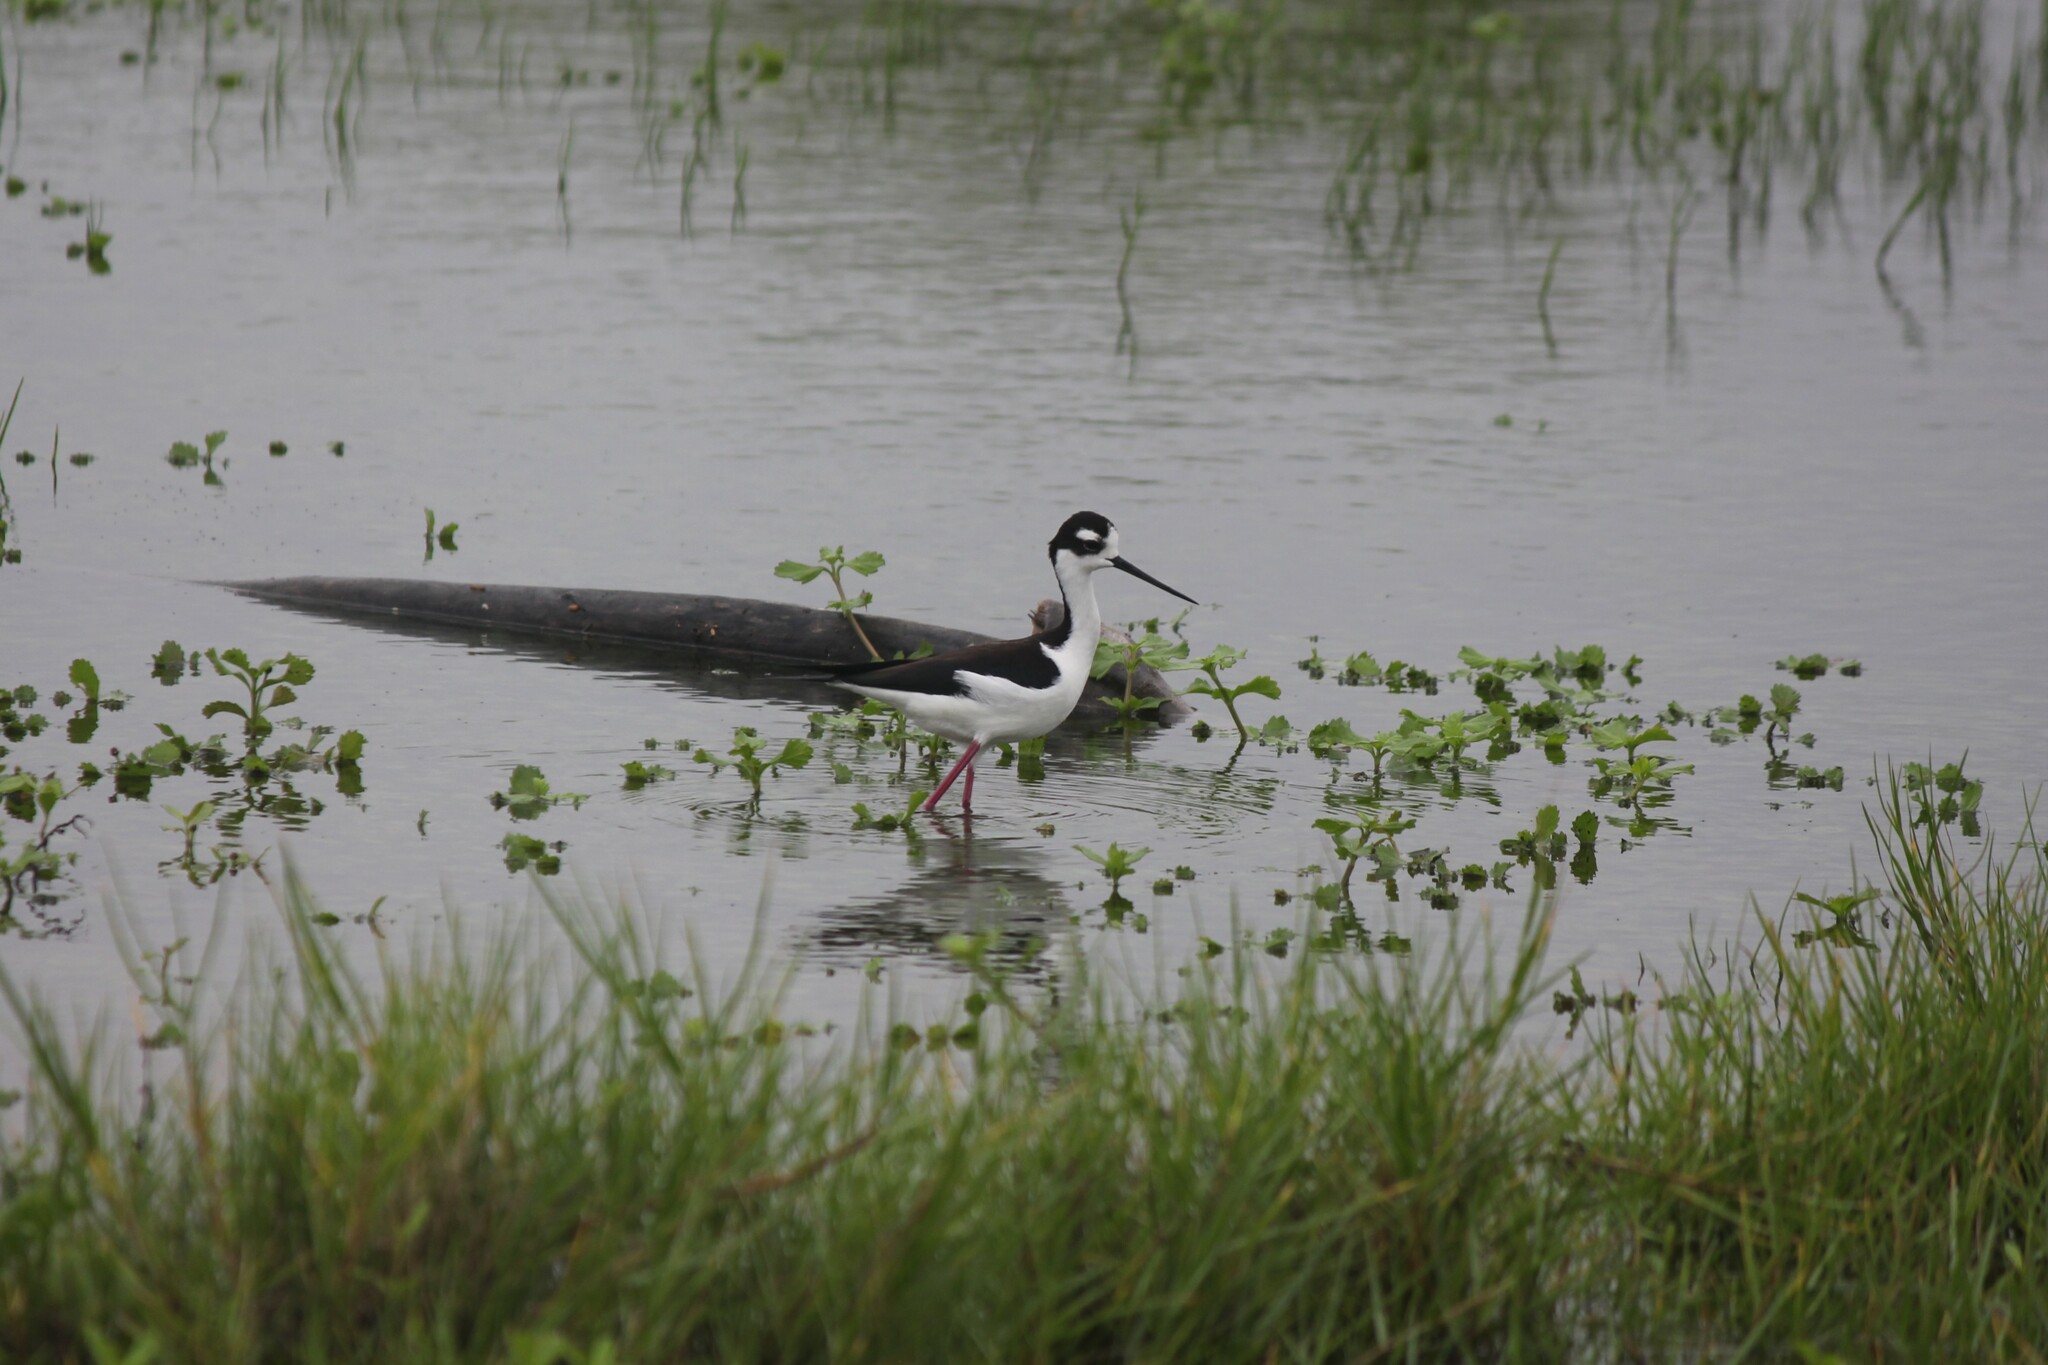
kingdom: Animalia
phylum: Chordata
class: Aves
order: Charadriiformes
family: Recurvirostridae
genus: Himantopus
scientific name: Himantopus mexicanus
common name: Black-necked stilt
